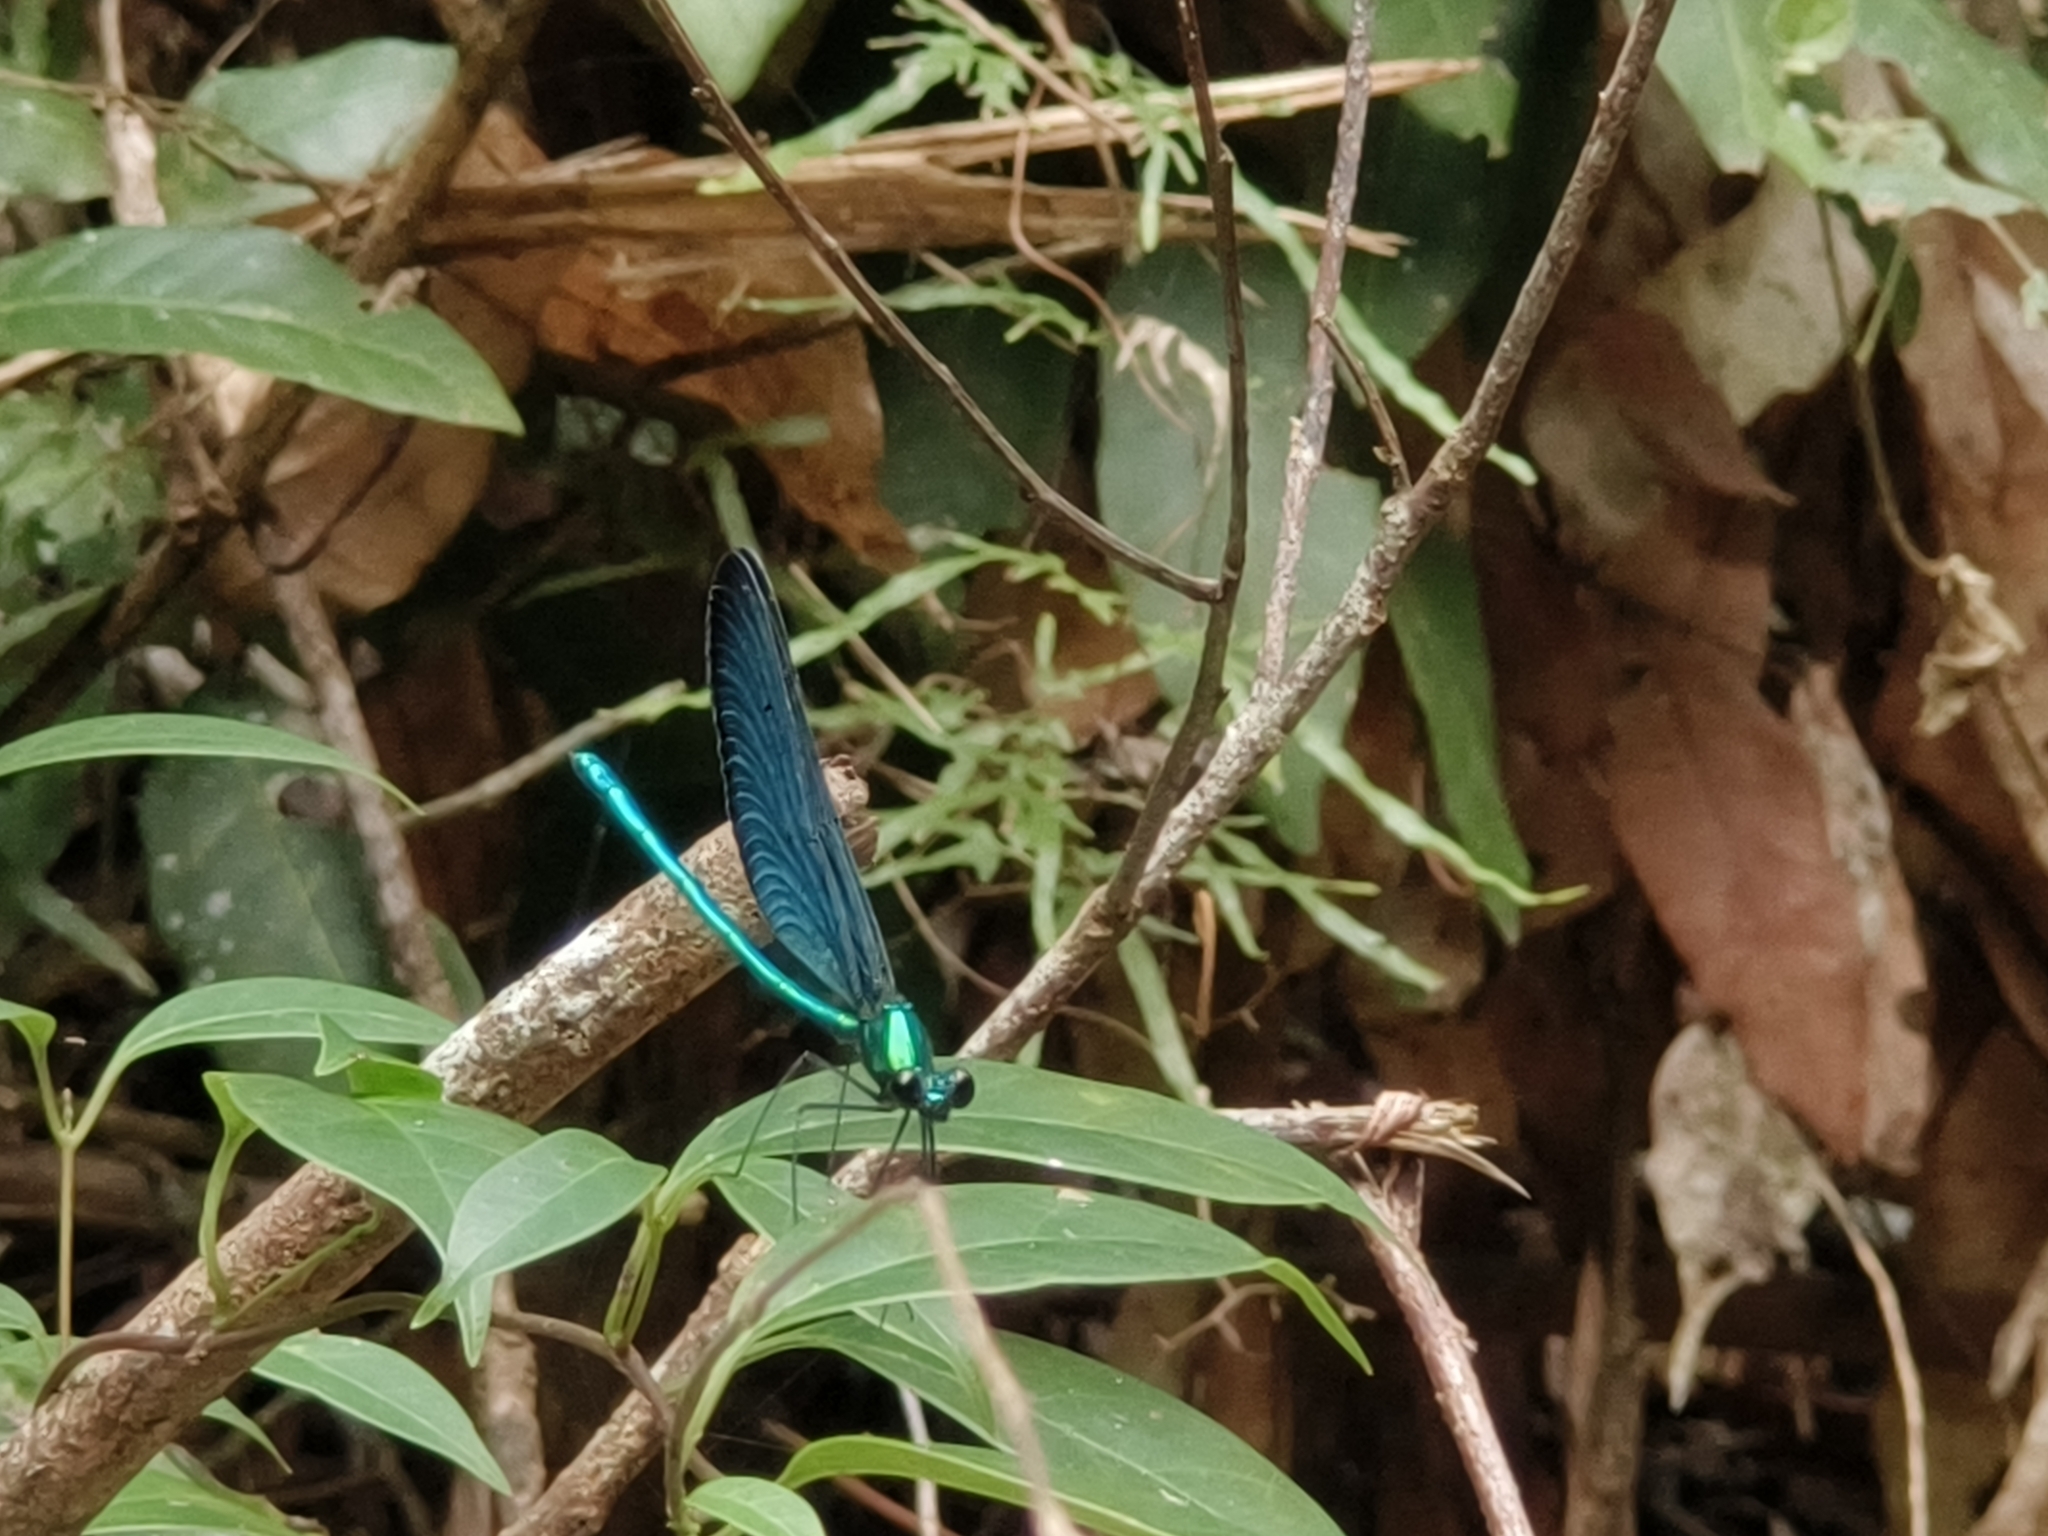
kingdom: Animalia
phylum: Arthropoda
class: Insecta
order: Odonata
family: Calopterygidae
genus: Matrona
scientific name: Matrona cyanoptera
